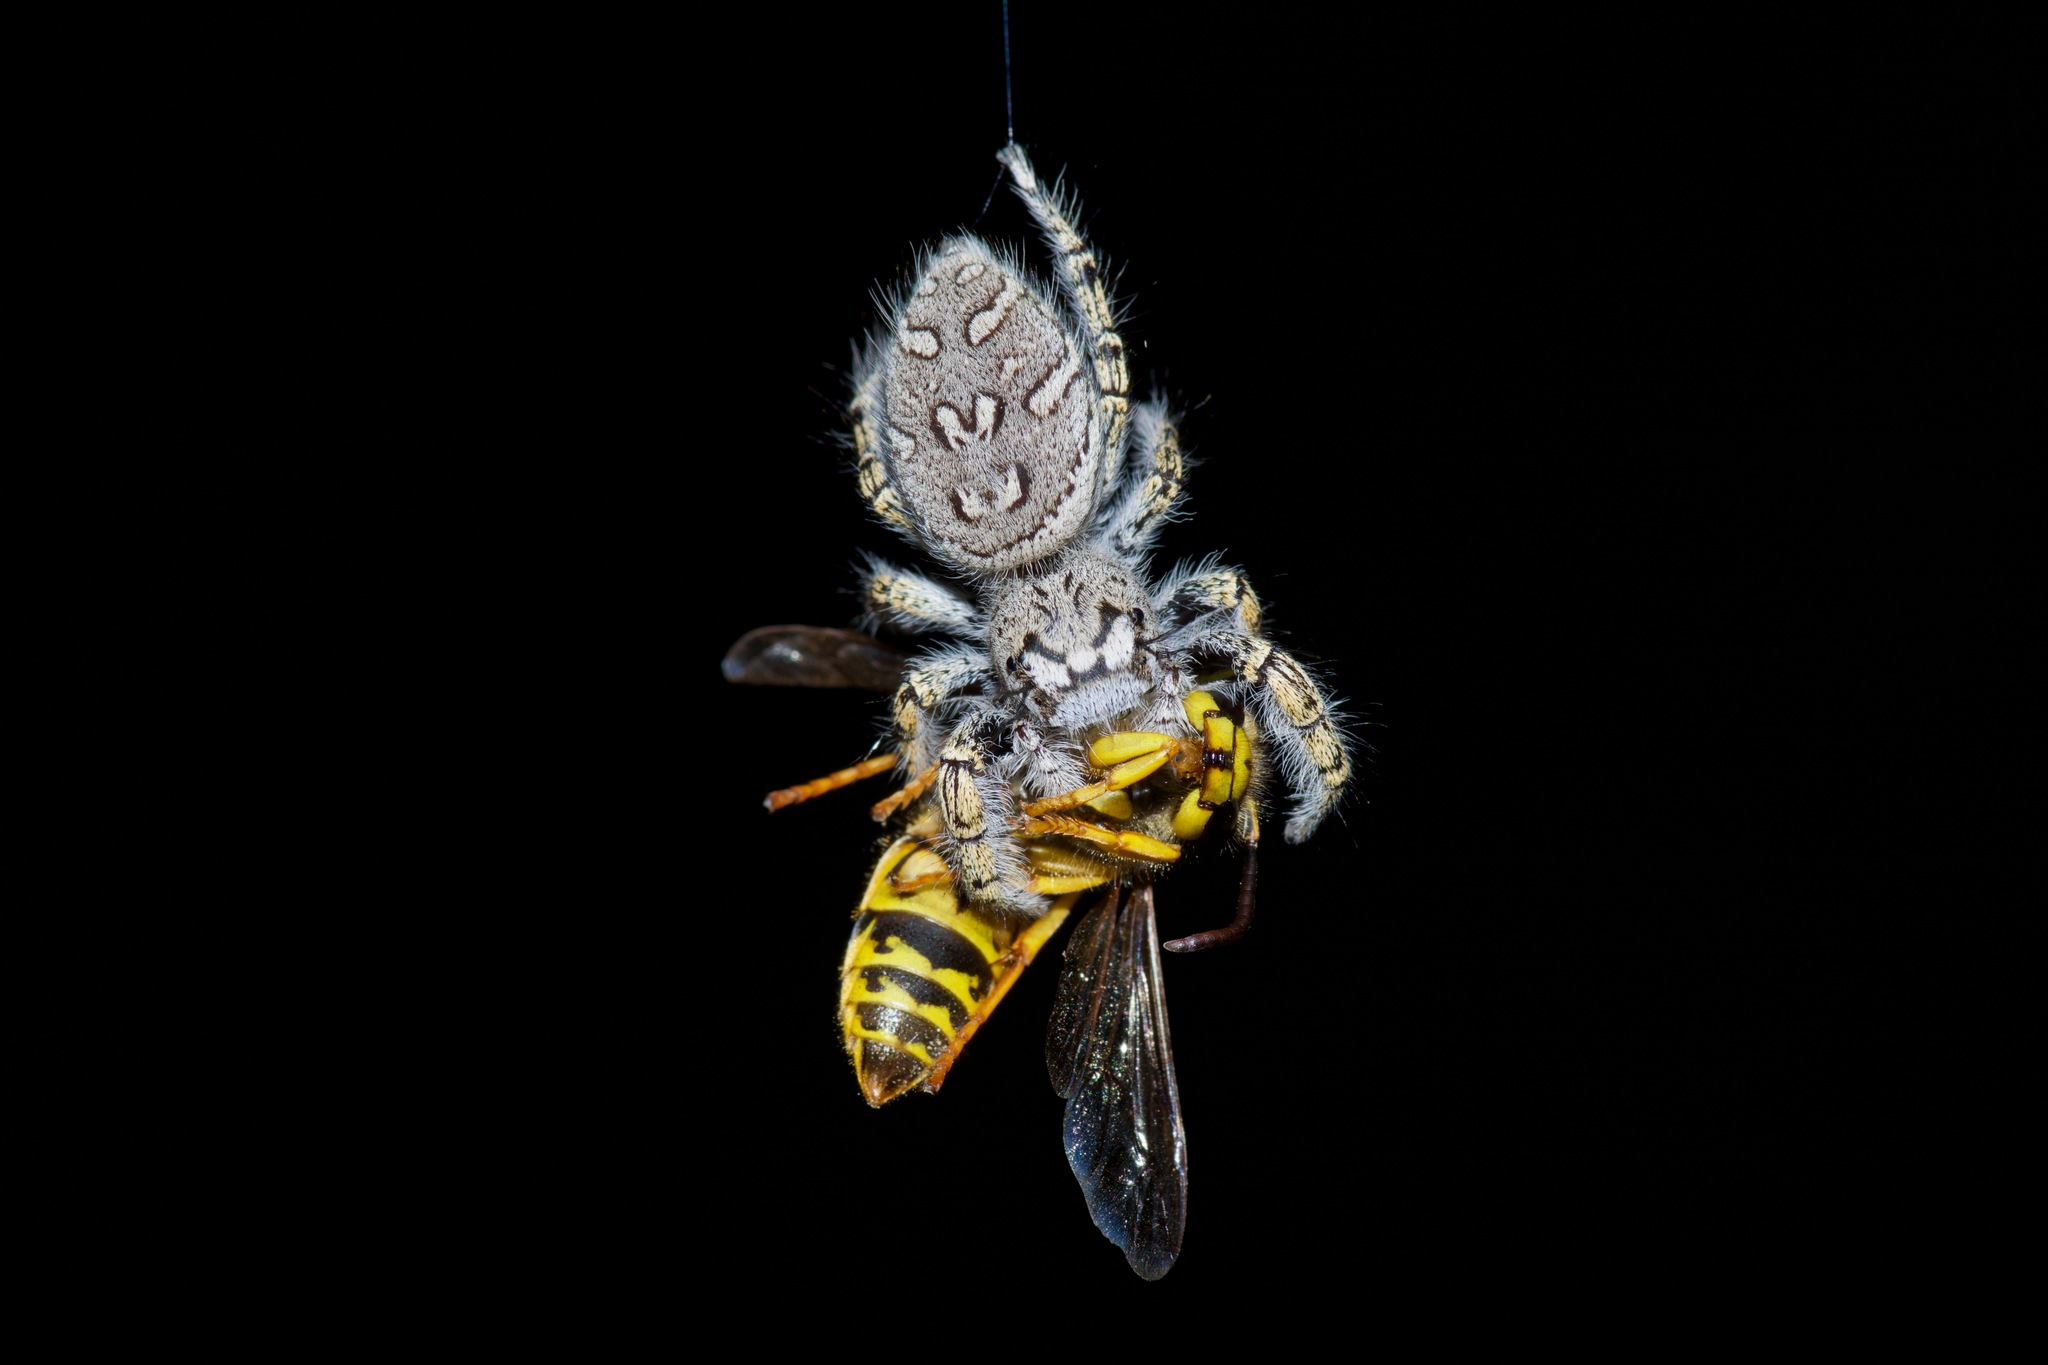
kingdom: Animalia
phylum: Arthropoda
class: Arachnida
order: Araneae
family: Salticidae
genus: Phidippus
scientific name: Phidippus mystaceus
